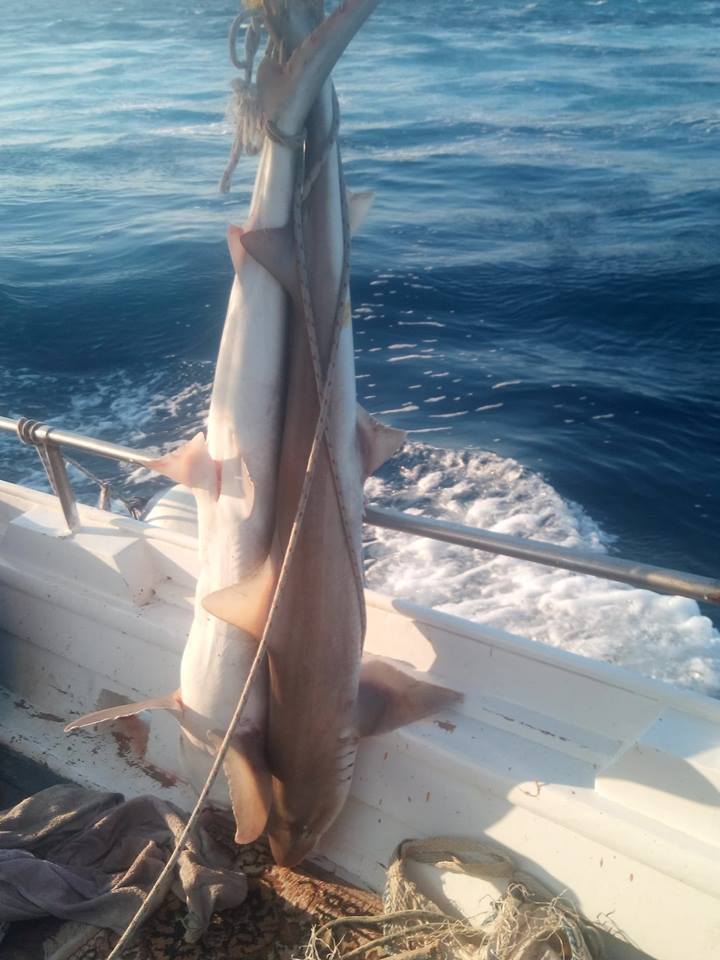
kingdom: Animalia
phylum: Chordata
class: Elasmobranchii
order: Carcharhiniformes
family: Triakidae
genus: Mustelus
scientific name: Mustelus mustelus
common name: Smooth-hound
